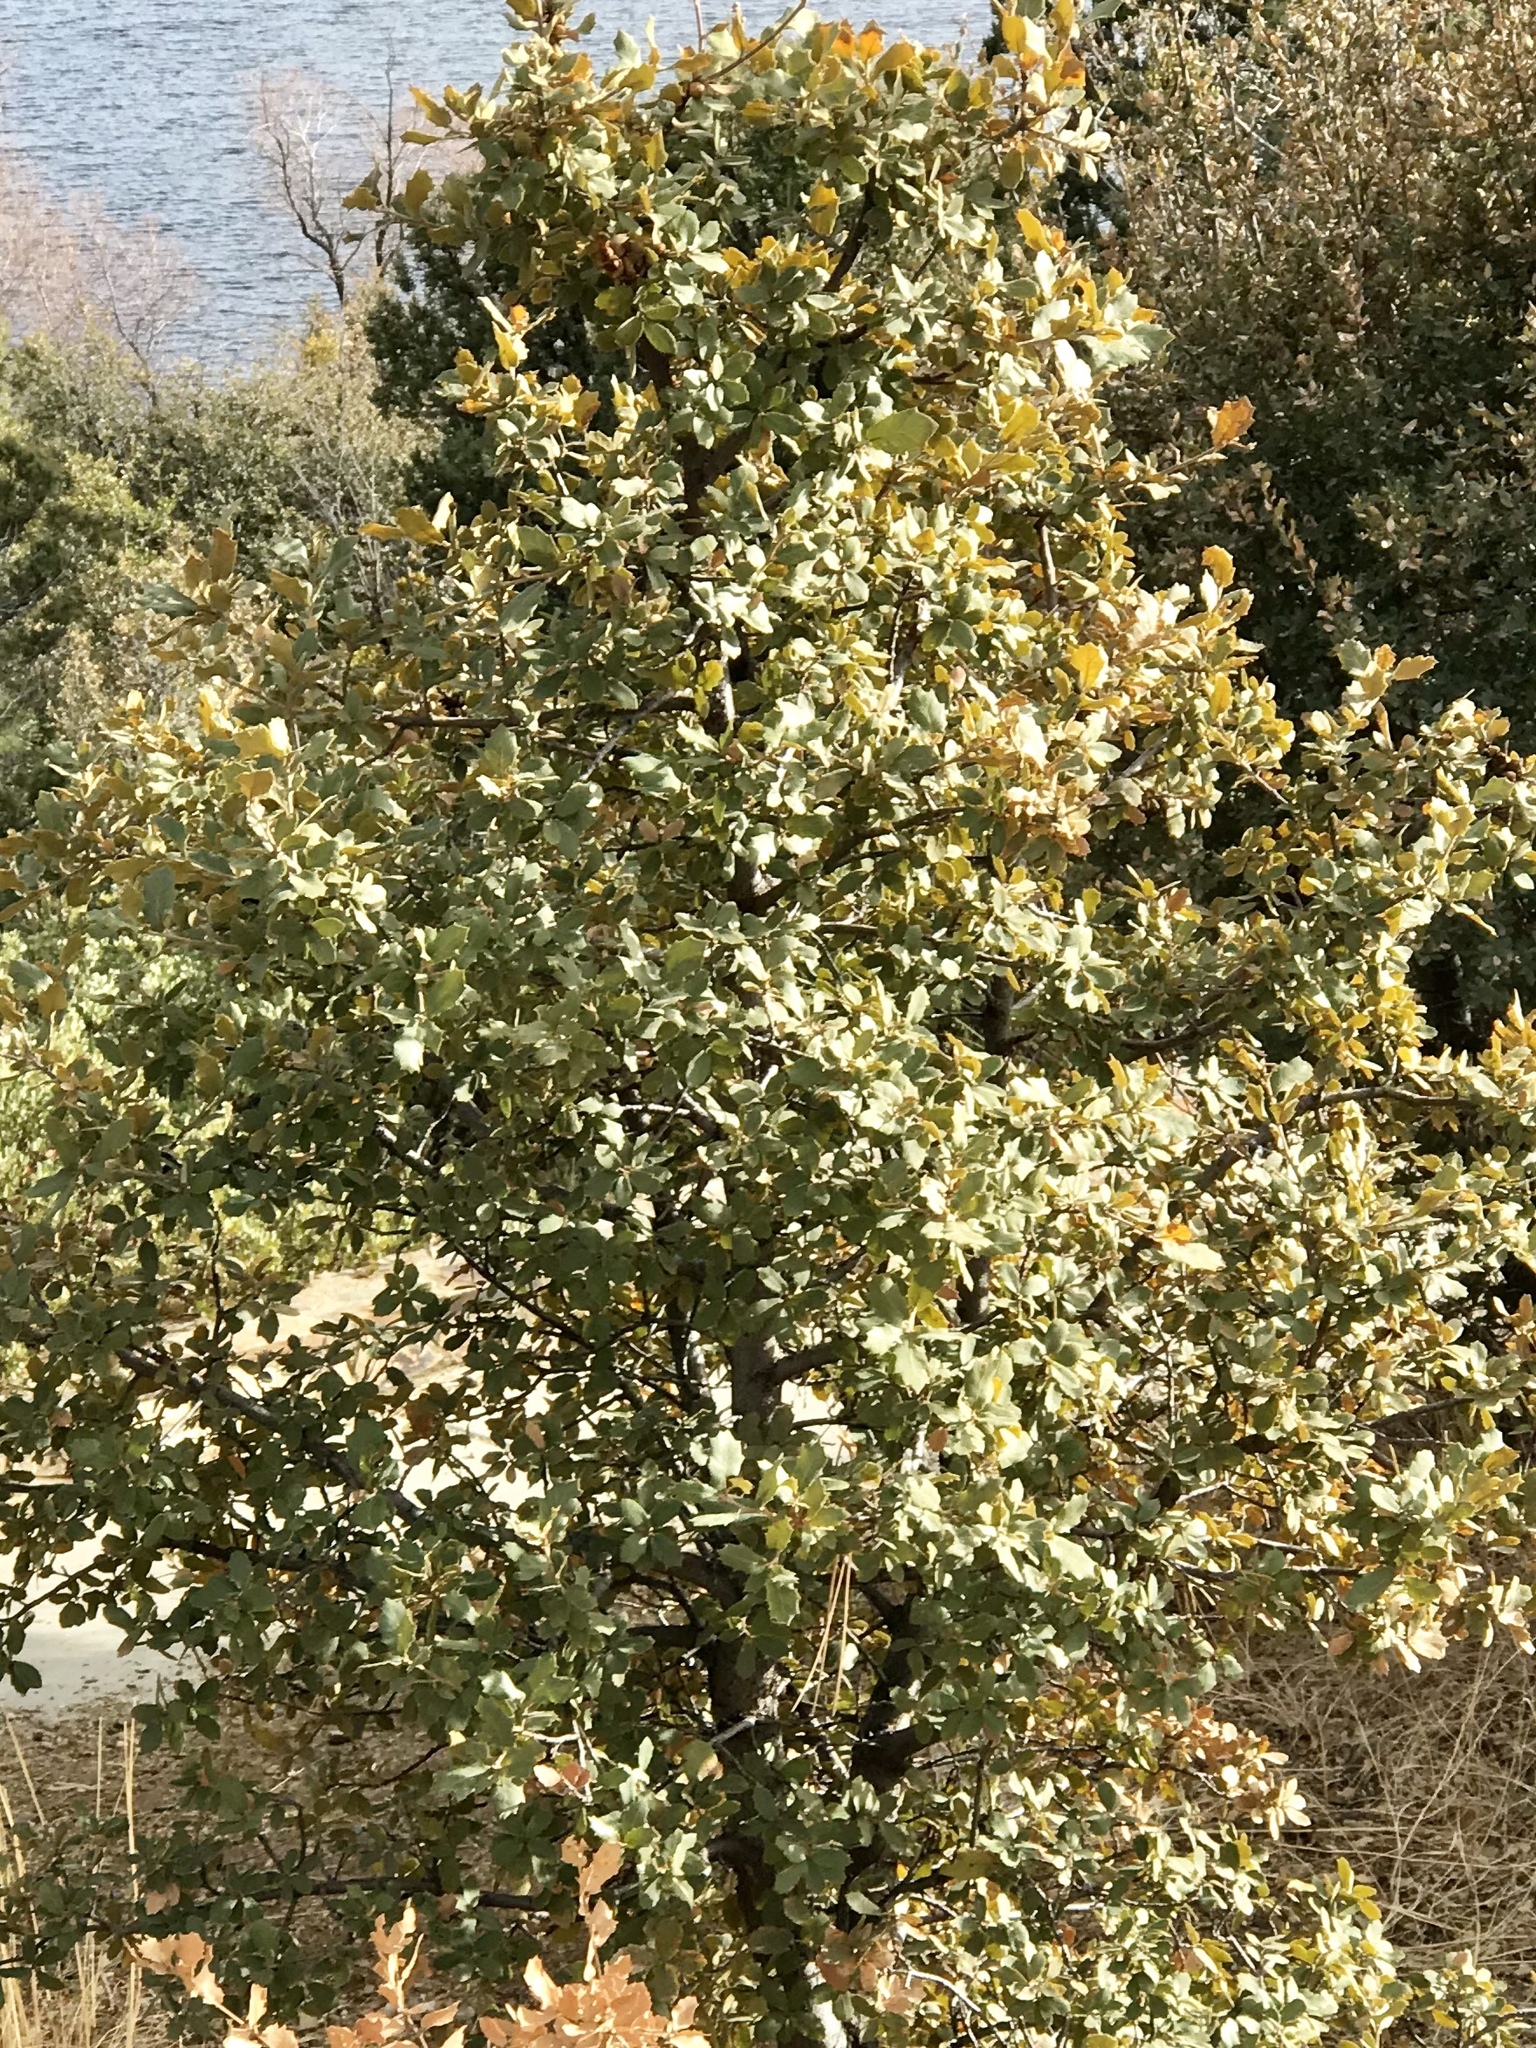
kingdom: Plantae
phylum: Tracheophyta
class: Magnoliopsida
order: Fagales
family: Fagaceae
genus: Quercus
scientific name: Quercus grisea
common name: Gray oak
